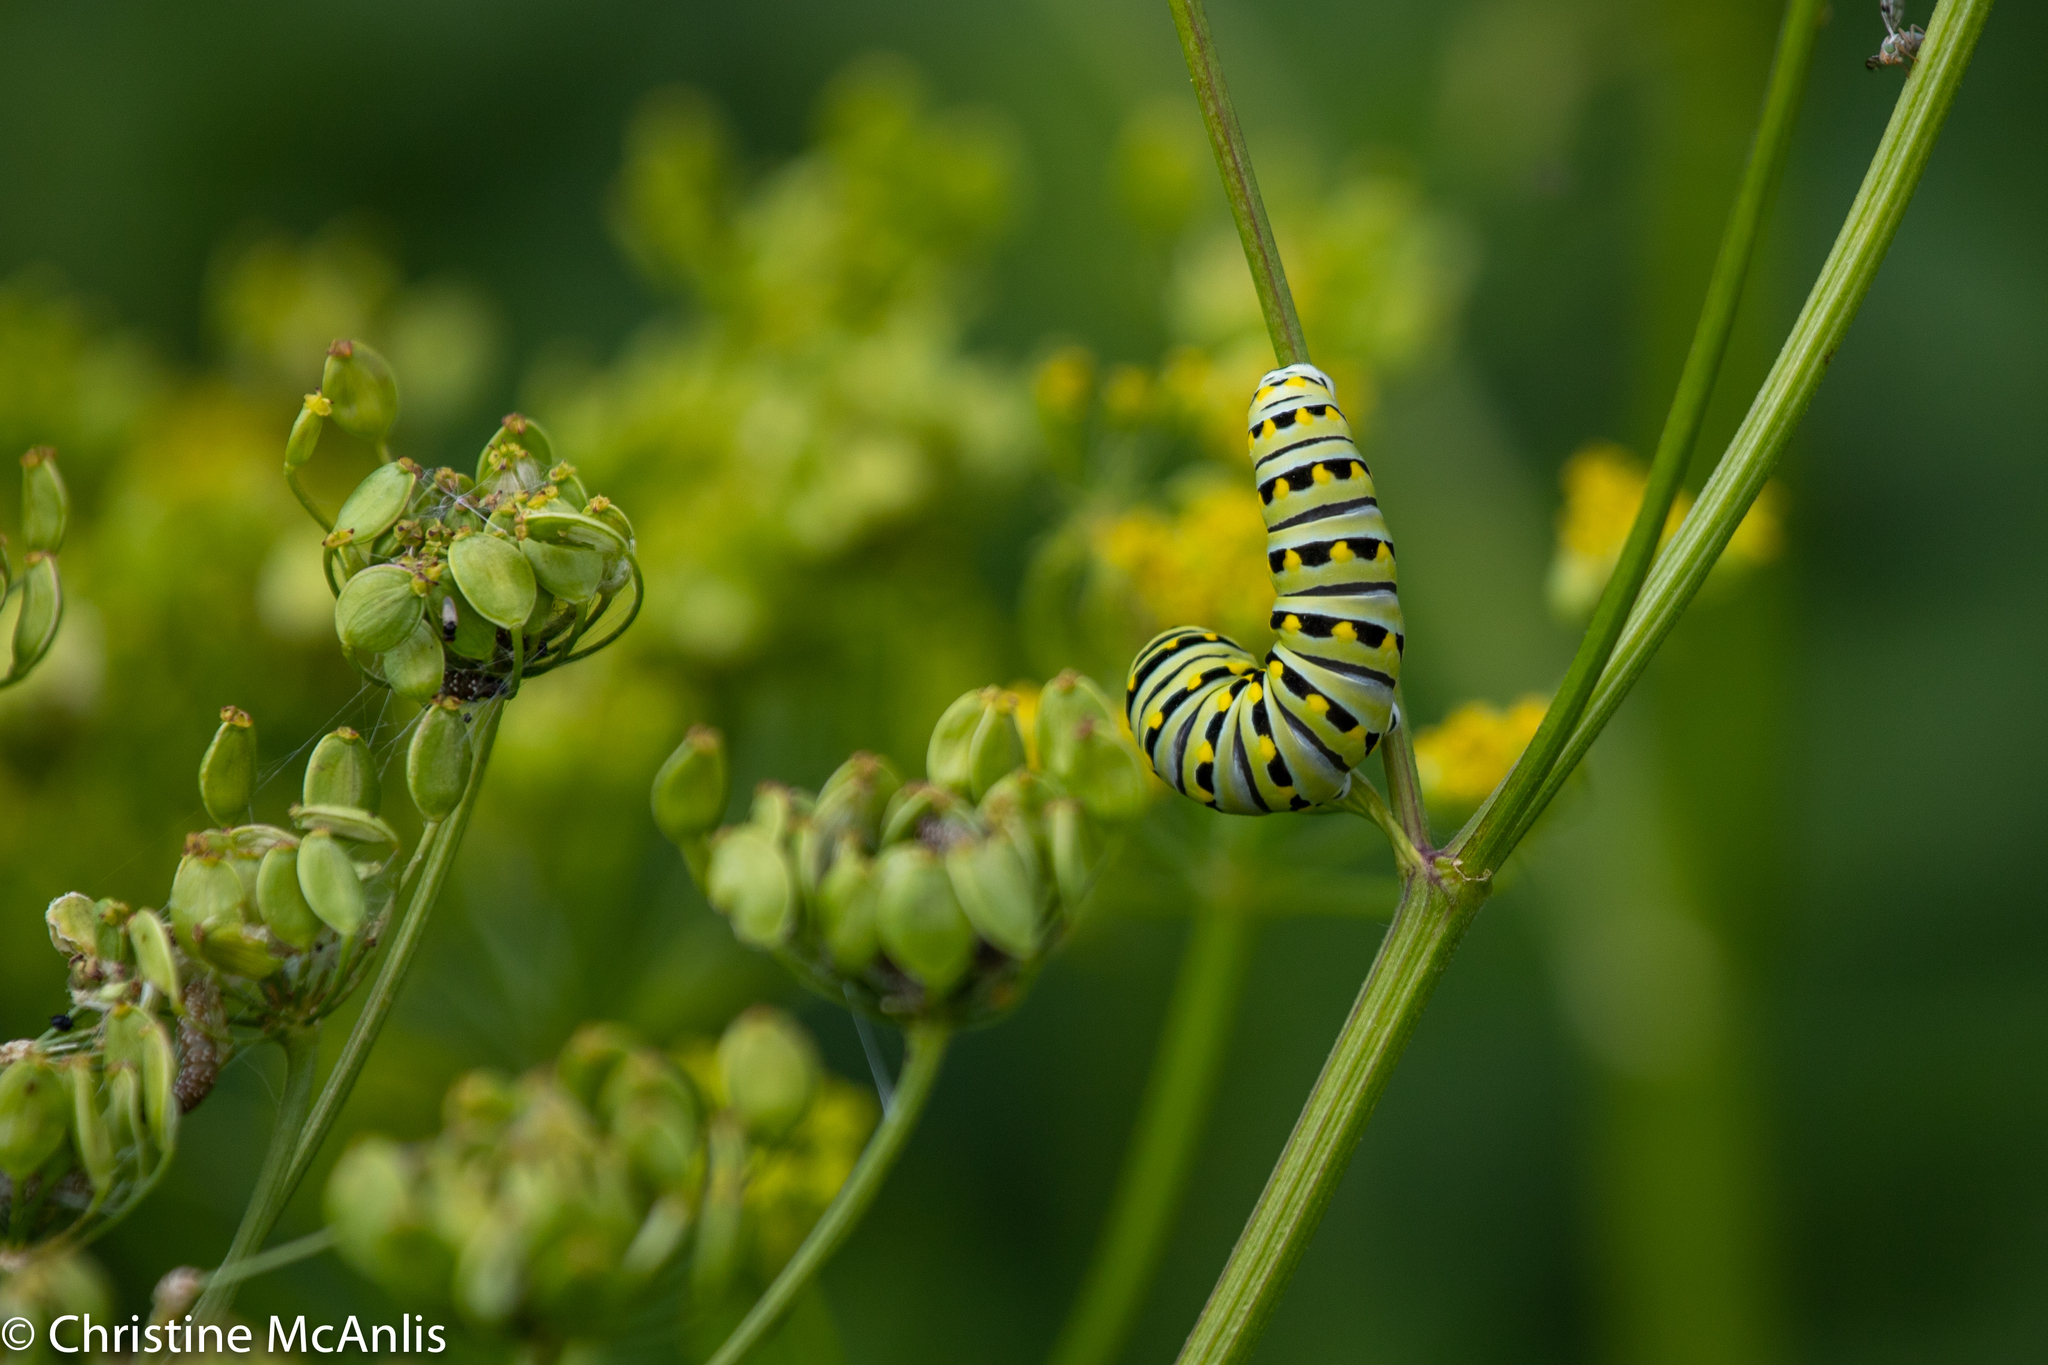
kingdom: Animalia
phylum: Arthropoda
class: Insecta
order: Lepidoptera
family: Papilionidae
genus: Papilio
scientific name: Papilio polyxenes
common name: Black swallowtail
